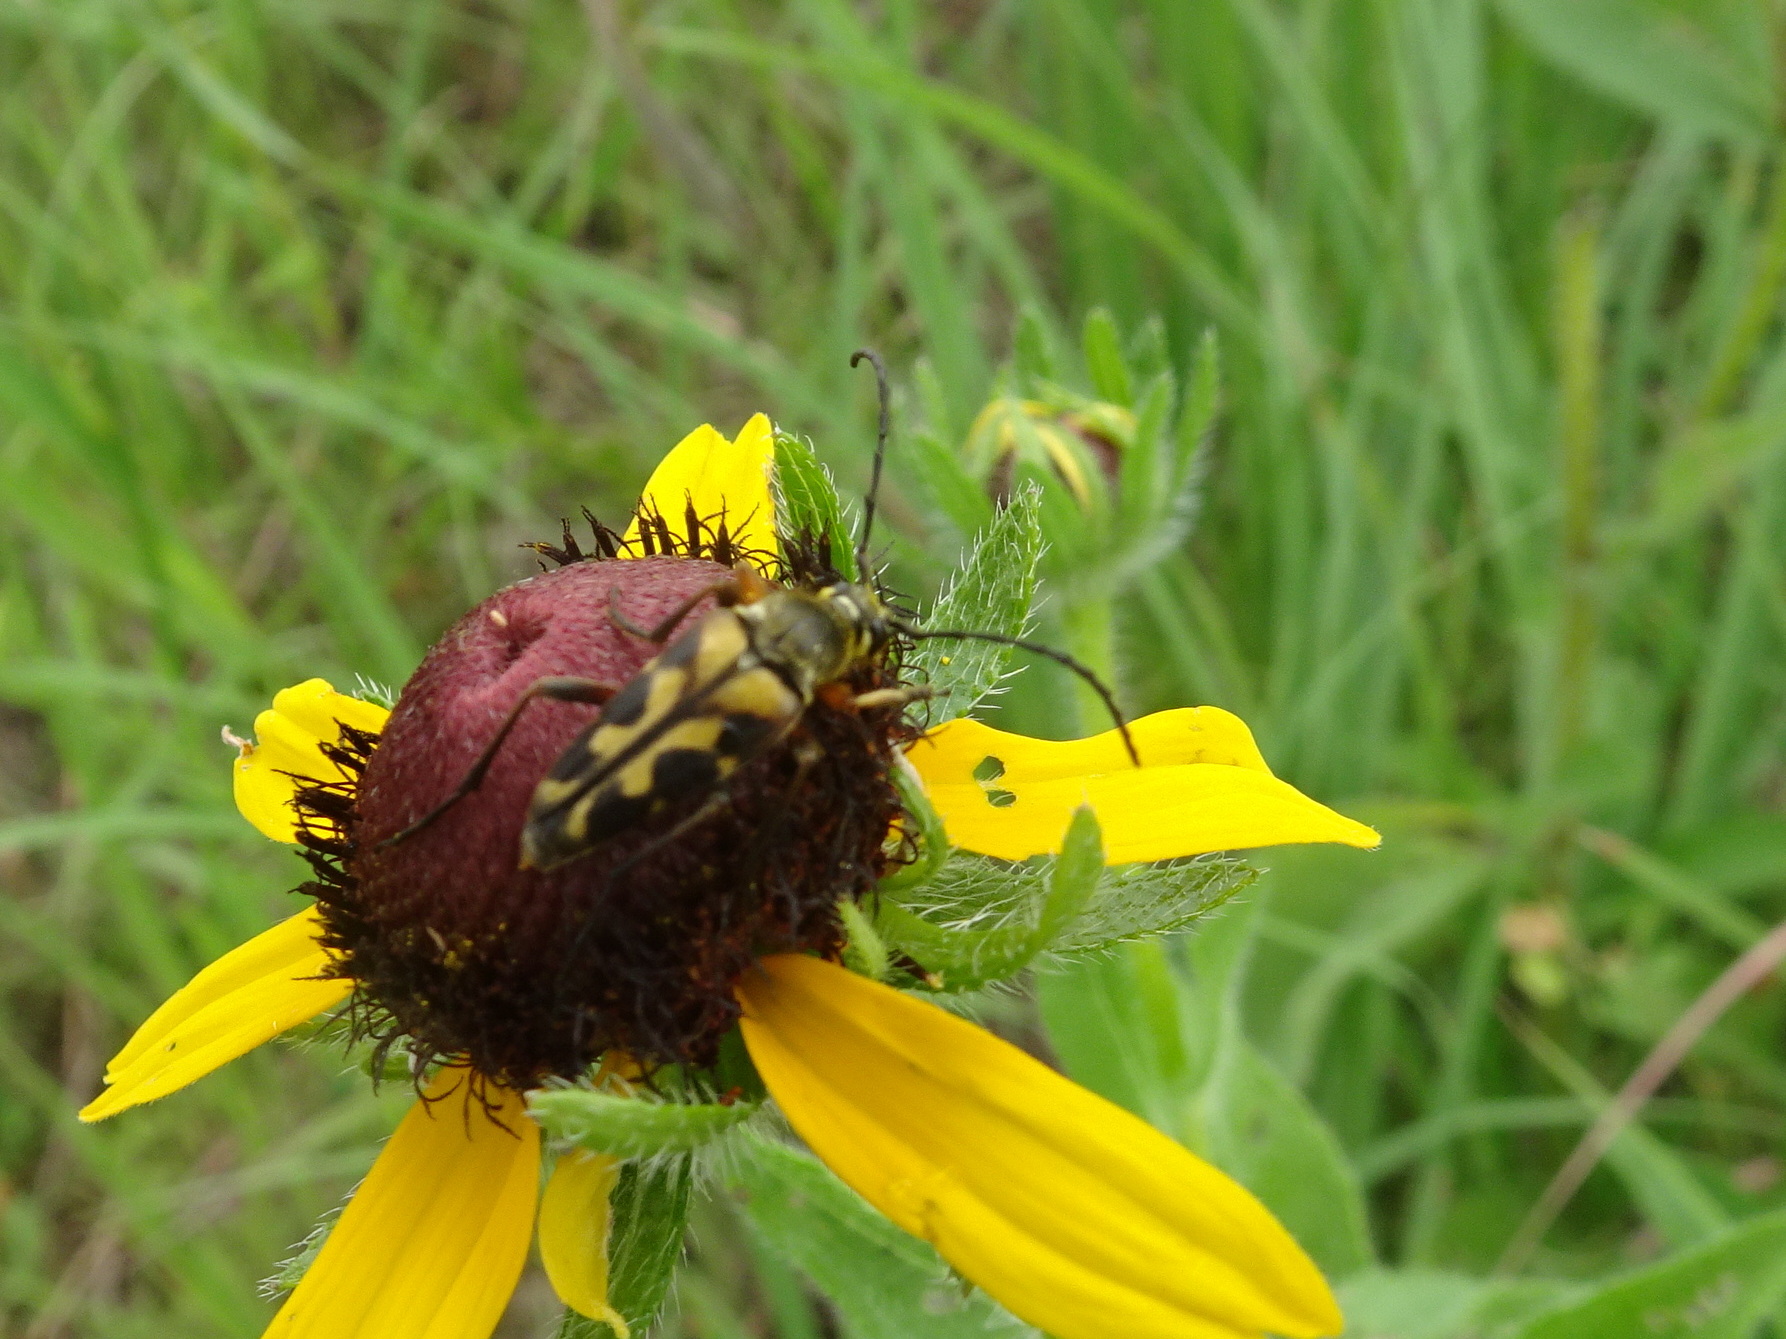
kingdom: Animalia
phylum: Arthropoda
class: Insecta
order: Coleoptera
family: Cerambycidae
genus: Typocerus
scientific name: Typocerus octonotatus
